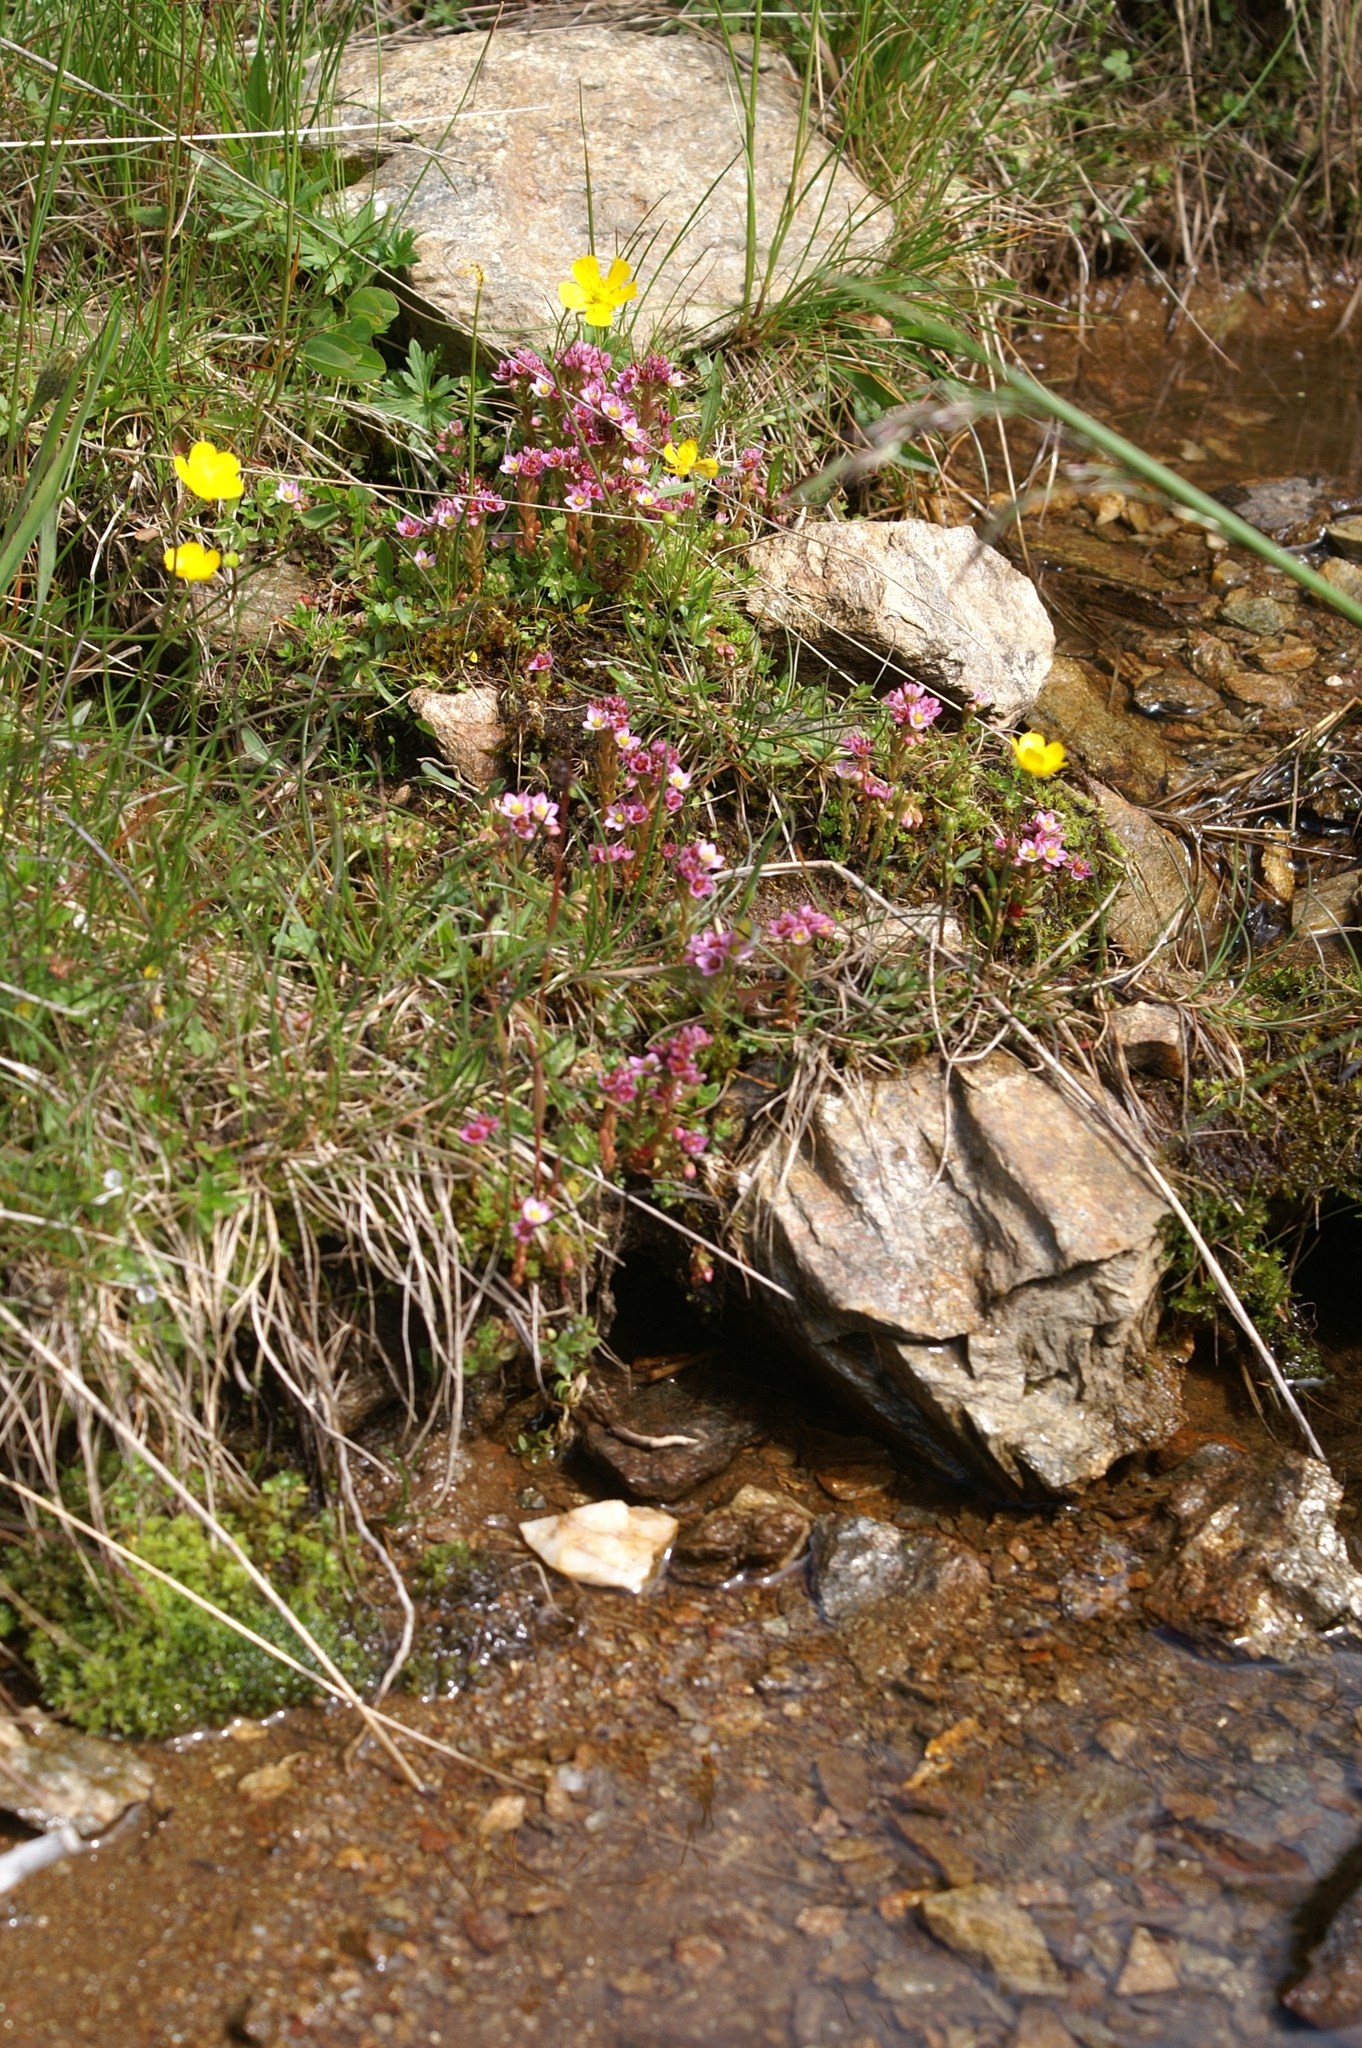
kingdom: Plantae
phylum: Tracheophyta
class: Magnoliopsida
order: Saxifragales
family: Crassulaceae
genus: Sedum
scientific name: Sedum villosum
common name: Hairy stonecrop
